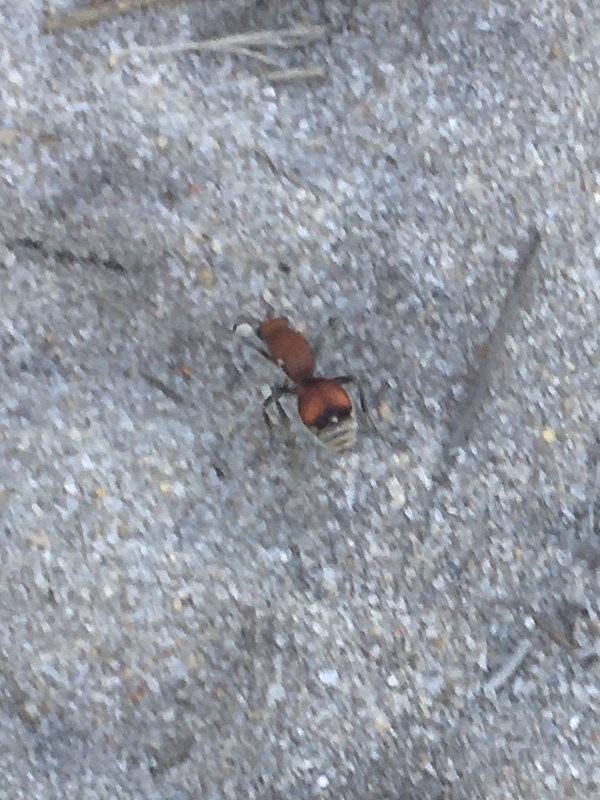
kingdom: Animalia
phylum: Arthropoda
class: Insecta
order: Hymenoptera
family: Mutillidae
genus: Dasymutilla
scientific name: Dasymutilla
